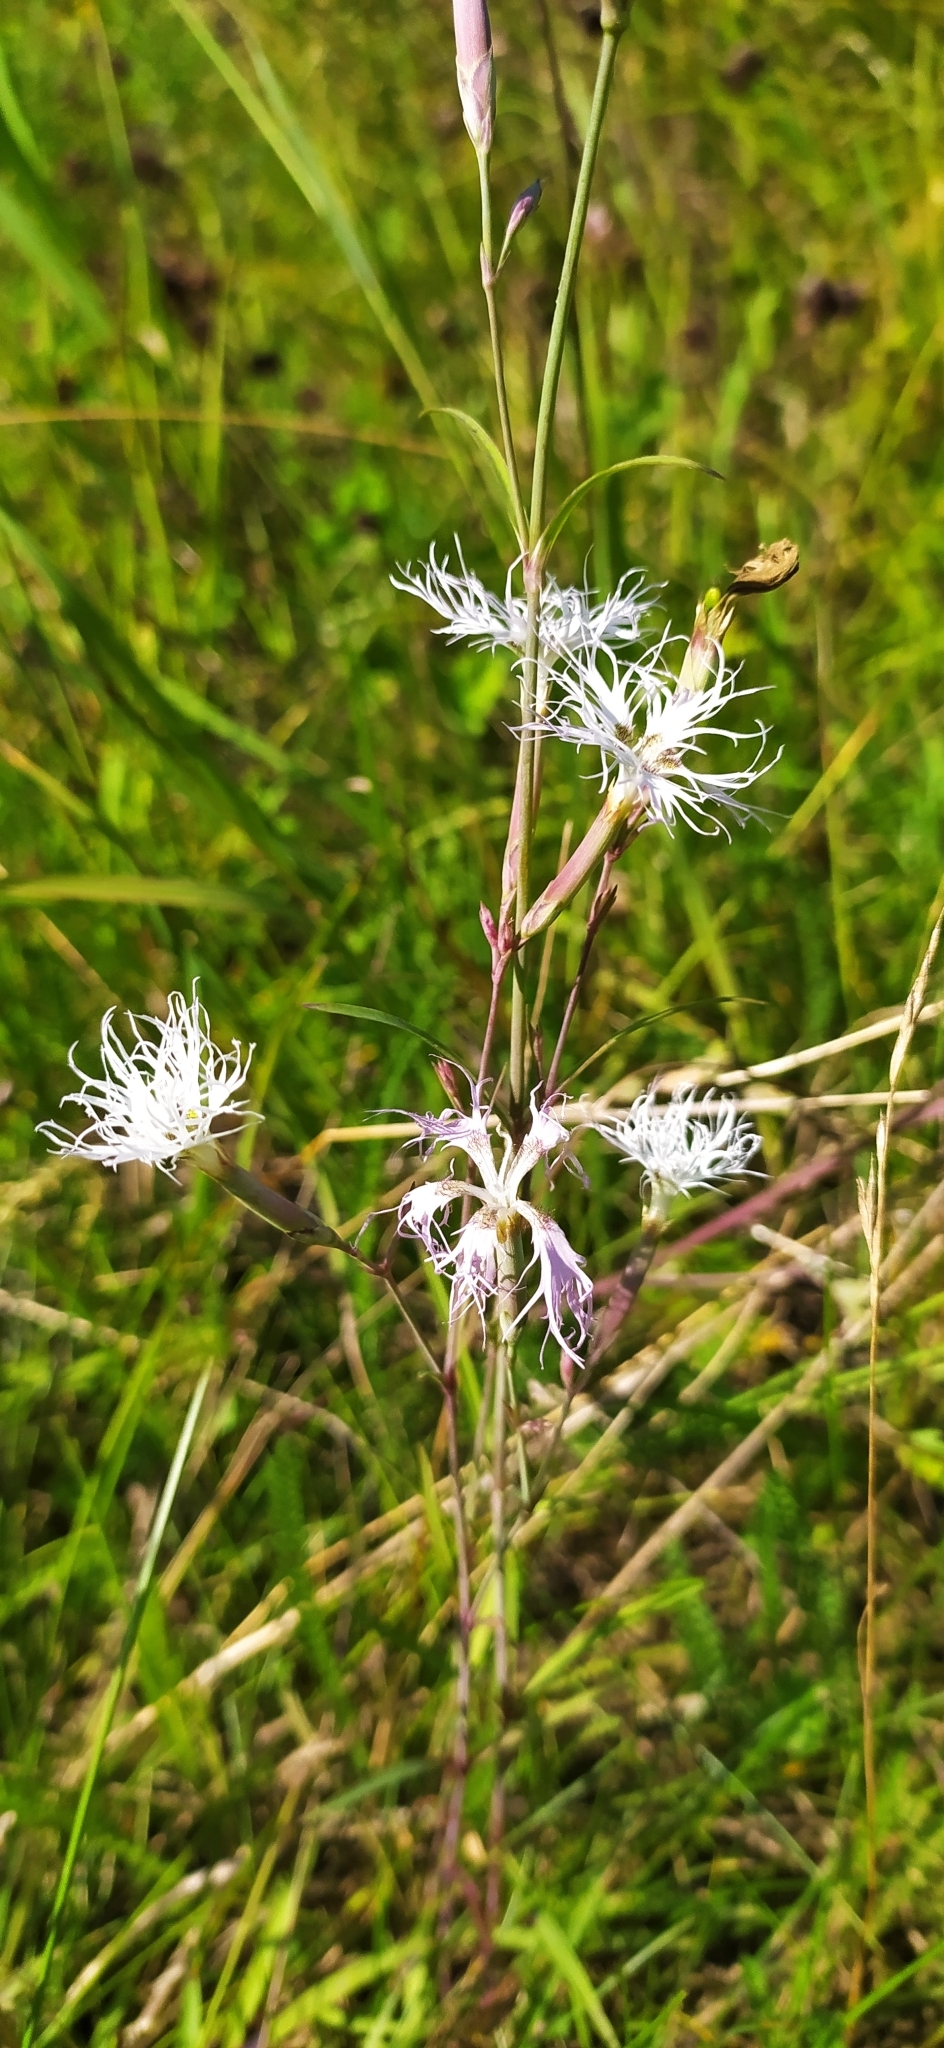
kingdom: Plantae
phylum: Tracheophyta
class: Magnoliopsida
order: Caryophyllales
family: Caryophyllaceae
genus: Dianthus
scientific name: Dianthus superbus
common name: Fringed pink
